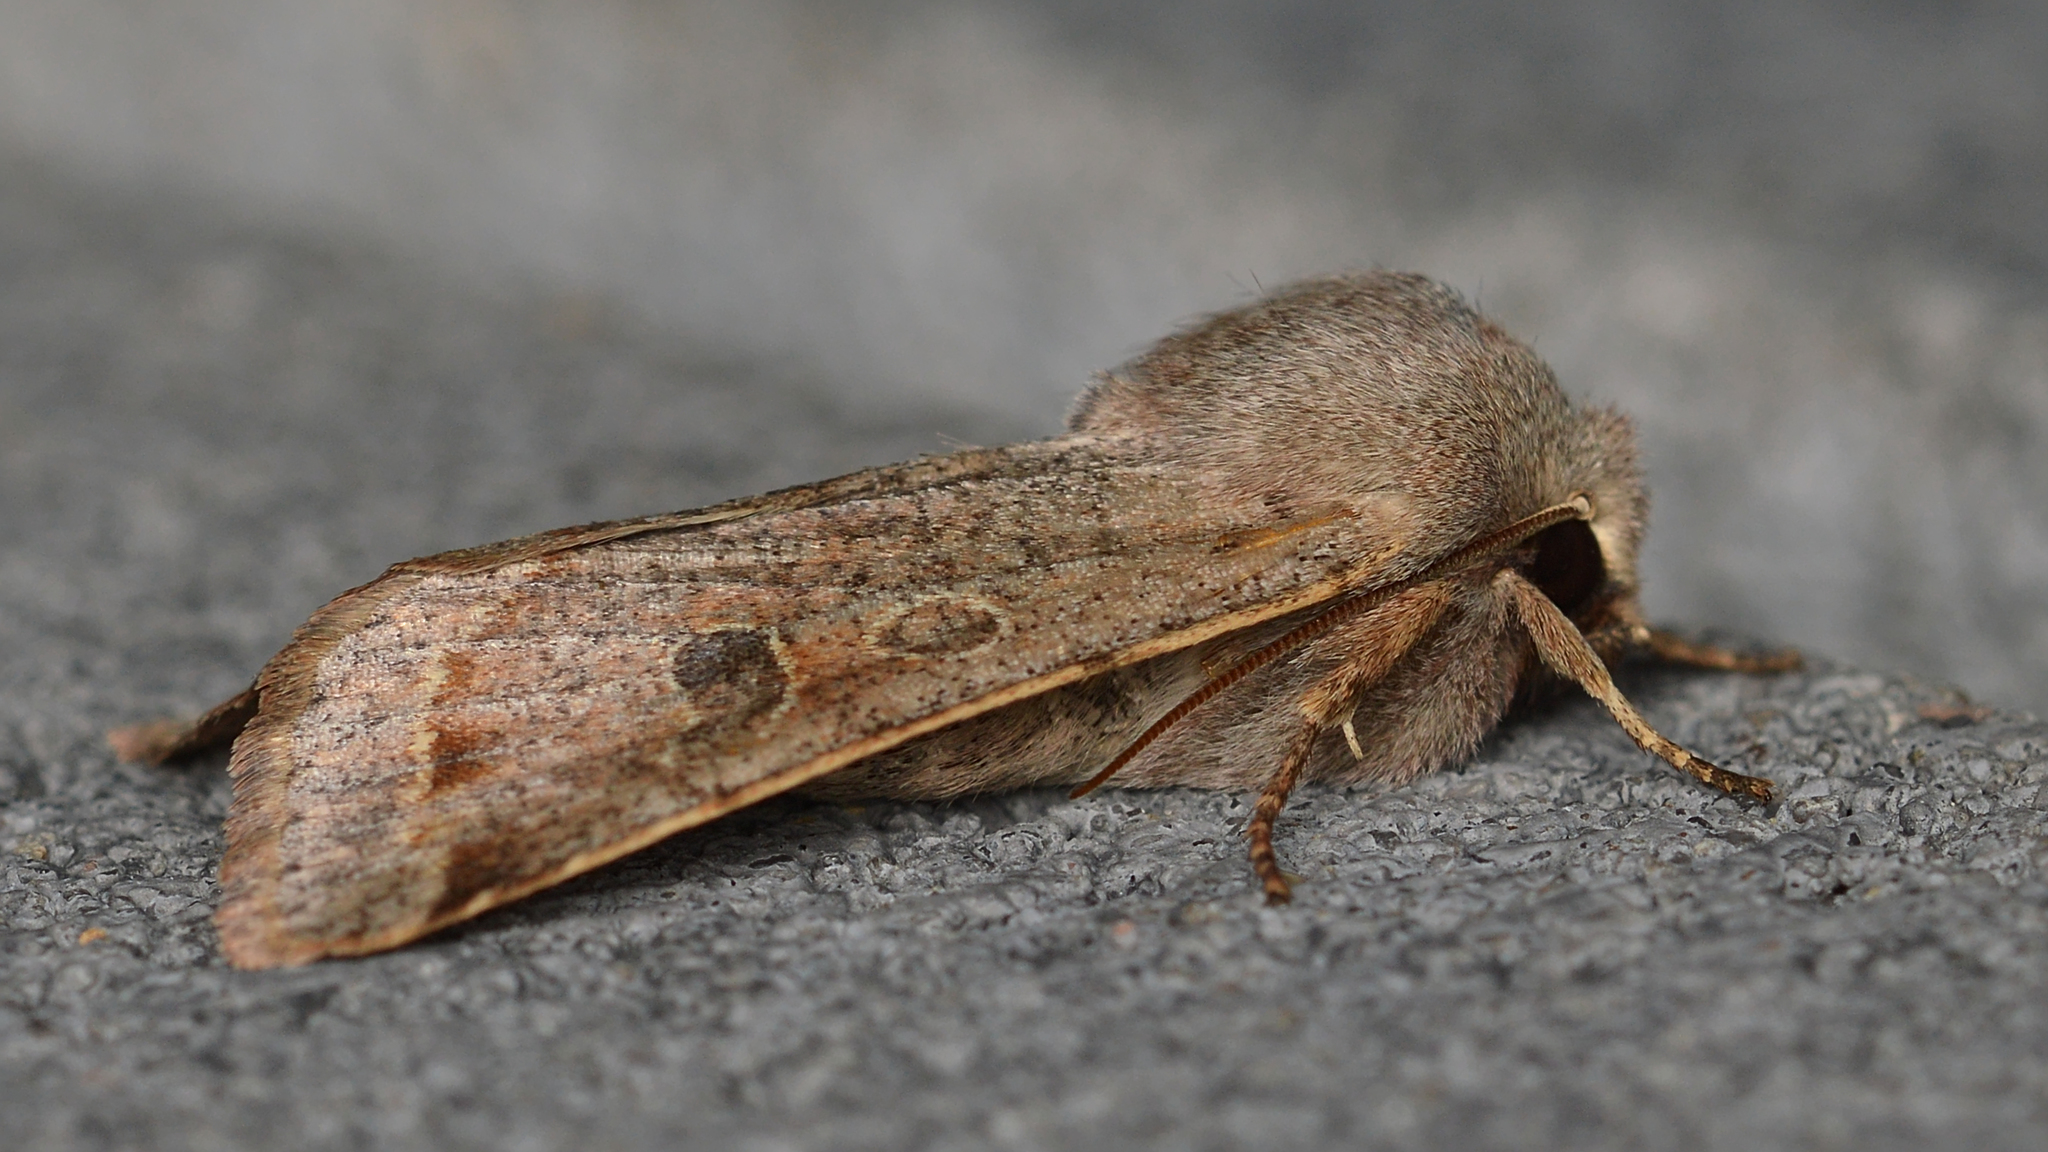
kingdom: Animalia
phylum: Arthropoda
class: Insecta
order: Lepidoptera
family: Noctuidae
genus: Orthosia
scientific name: Orthosia hibisci
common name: Green fruitworm
